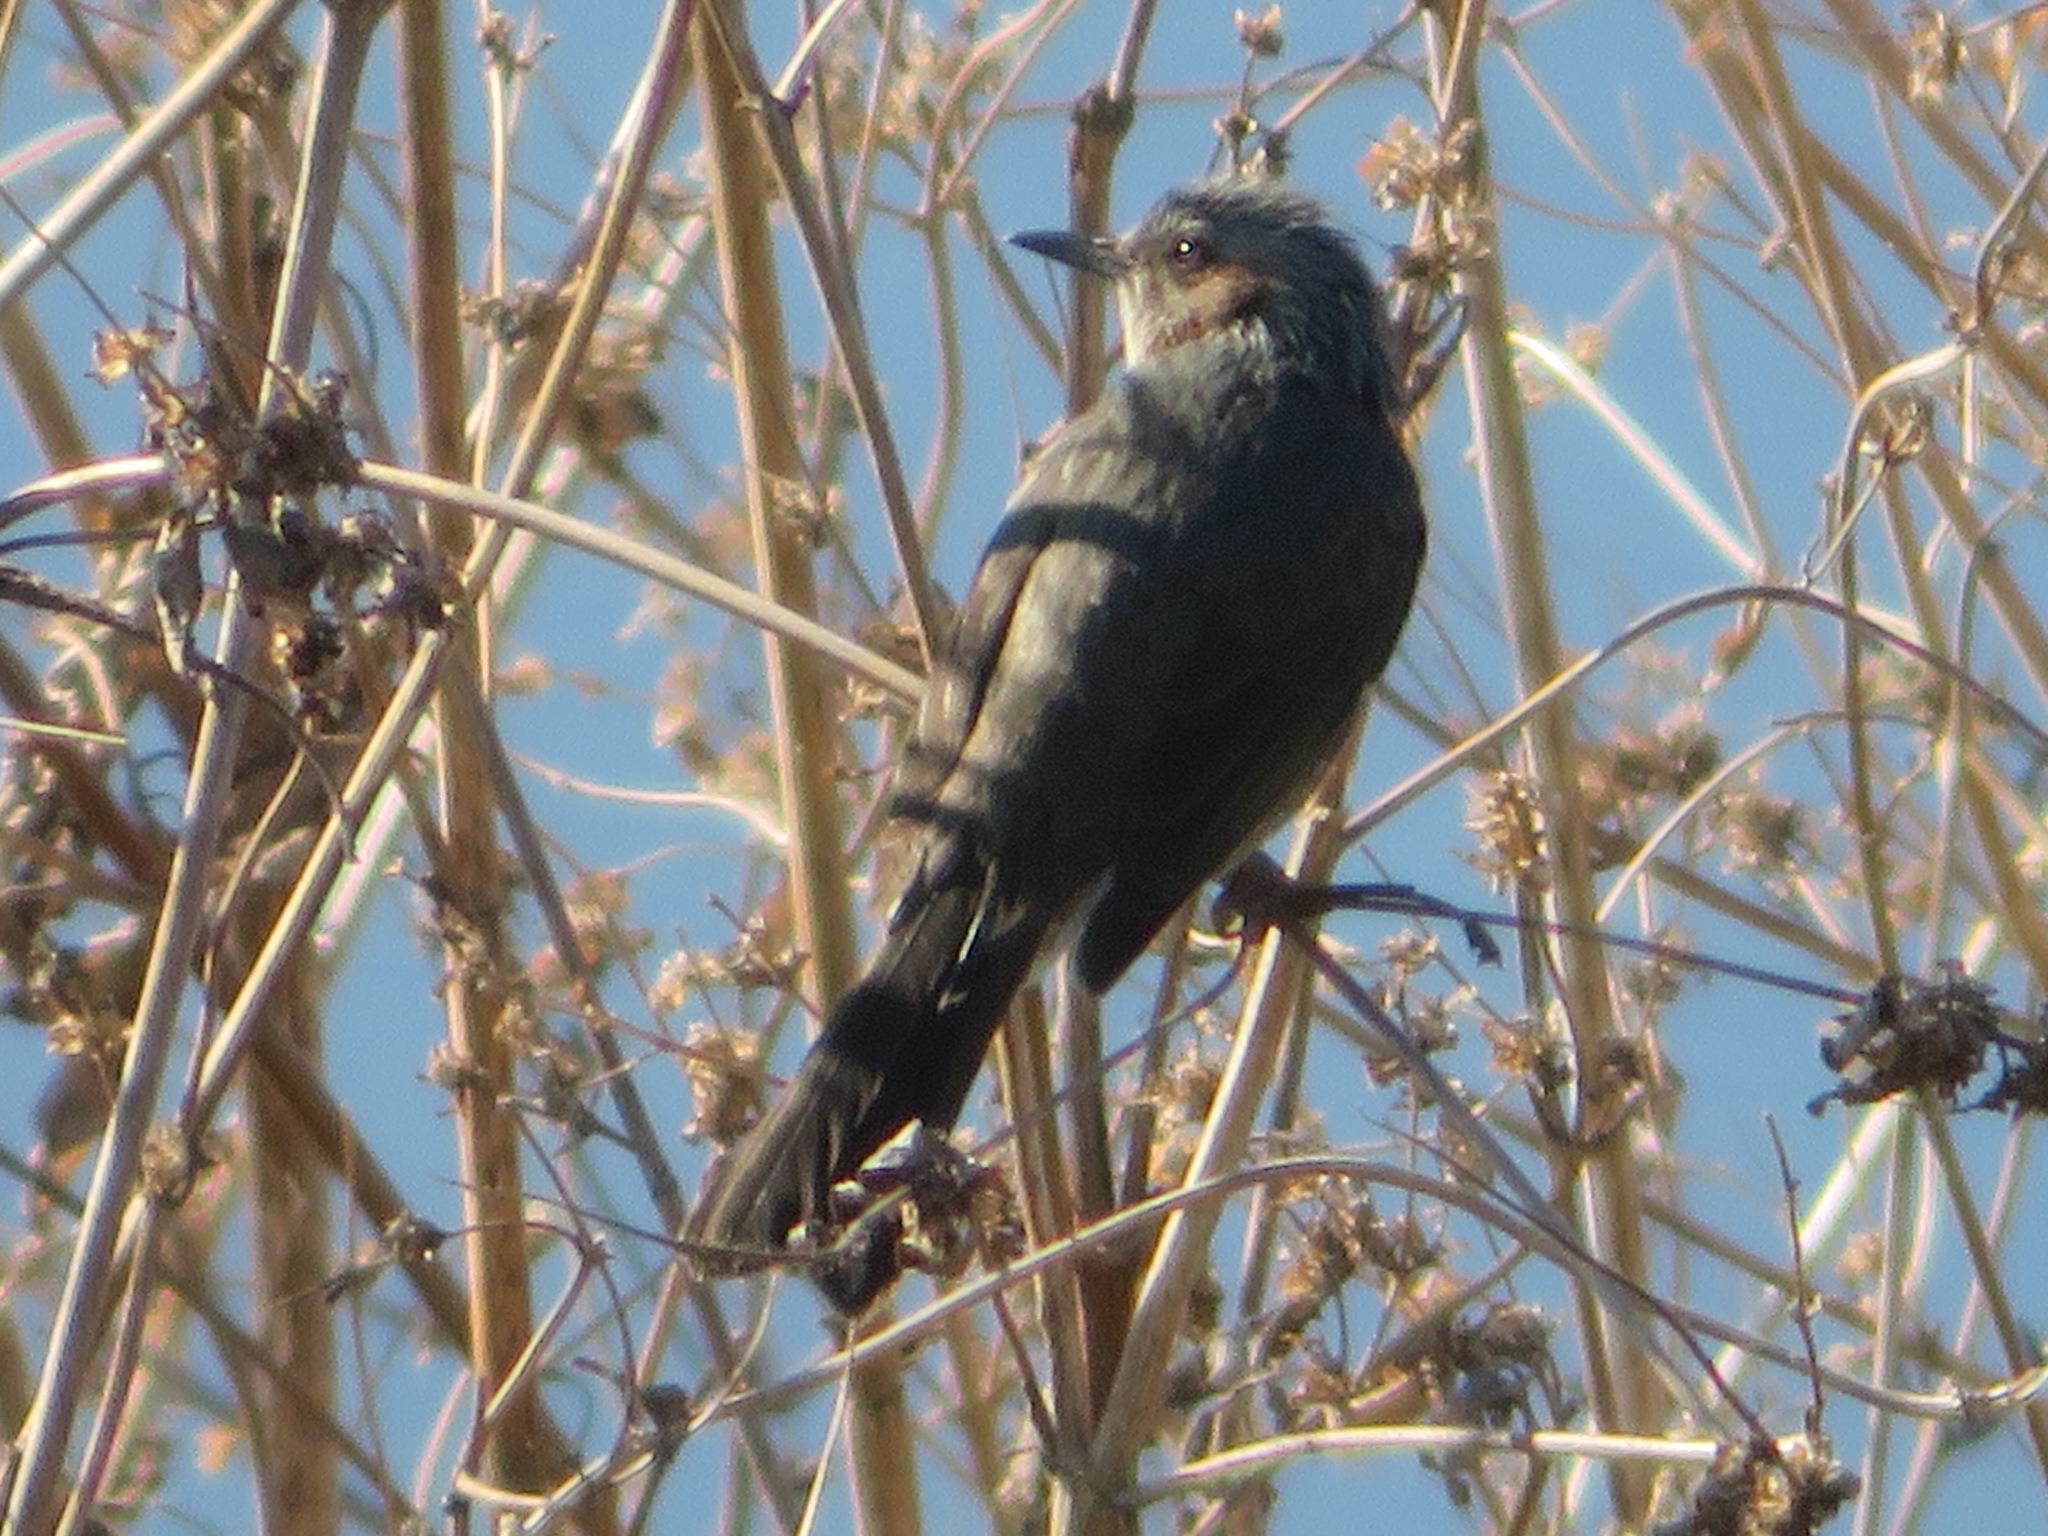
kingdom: Animalia
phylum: Chordata
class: Aves
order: Passeriformes
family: Pycnonotidae
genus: Hypsipetes
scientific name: Hypsipetes amaurotis
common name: Brown-eared bulbul
